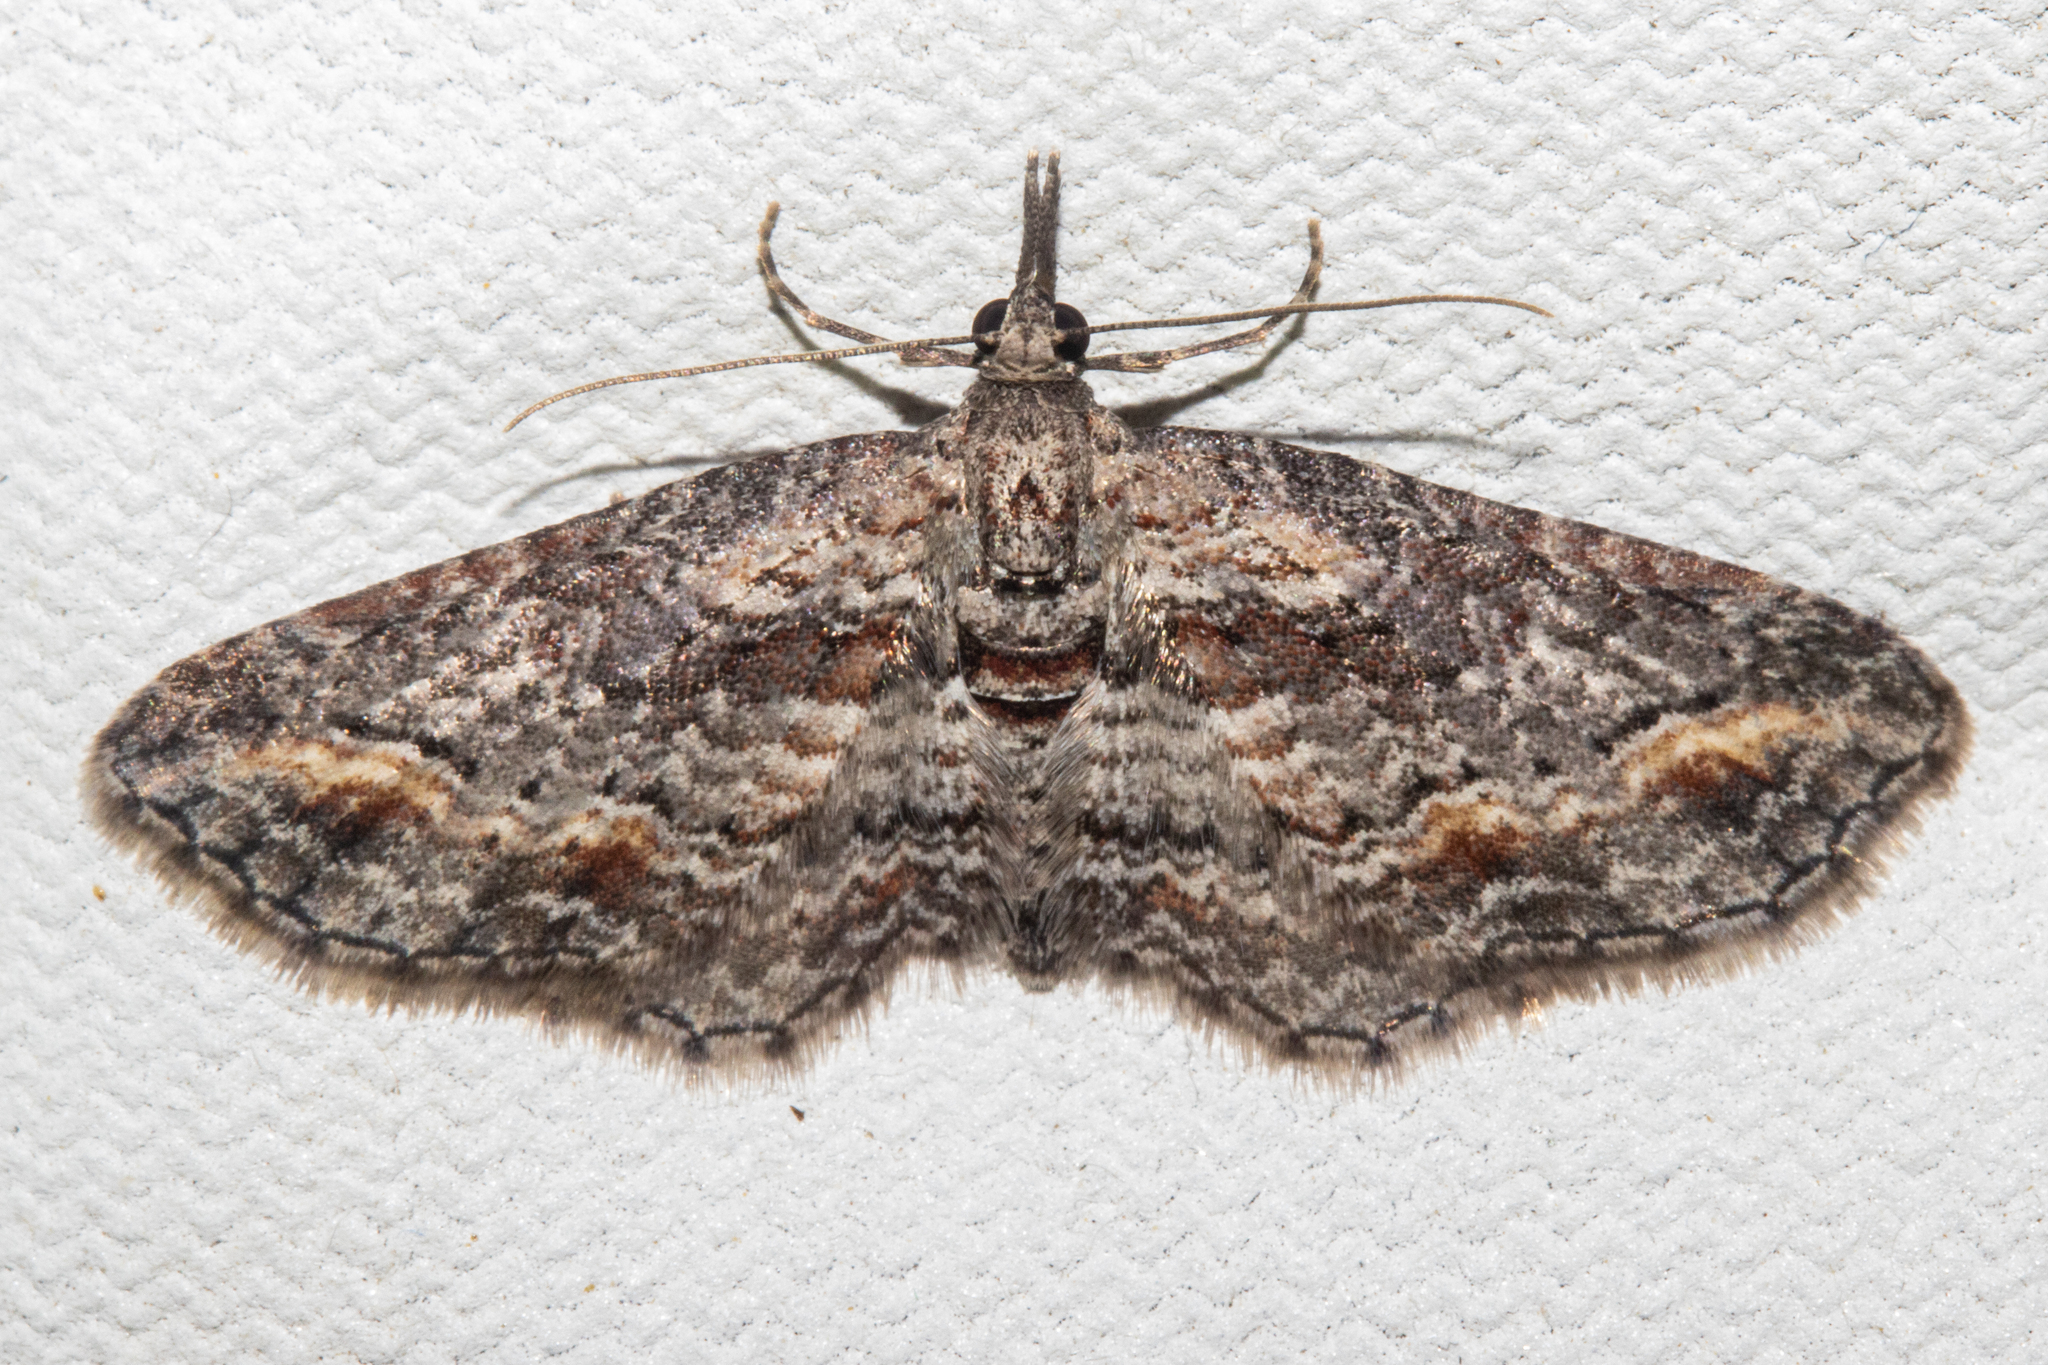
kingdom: Animalia
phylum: Arthropoda
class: Insecta
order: Lepidoptera
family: Geometridae
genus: Chloroclystis
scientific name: Chloroclystis filata
